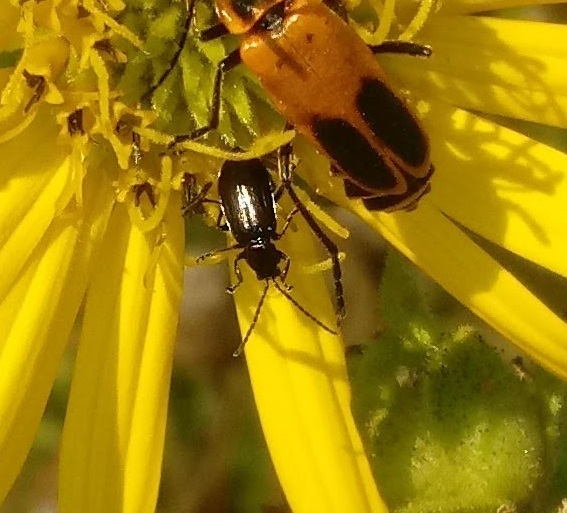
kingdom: Animalia
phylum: Arthropoda
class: Insecta
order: Coleoptera
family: Chrysomelidae
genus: Diabrotica
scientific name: Diabrotica cristata
